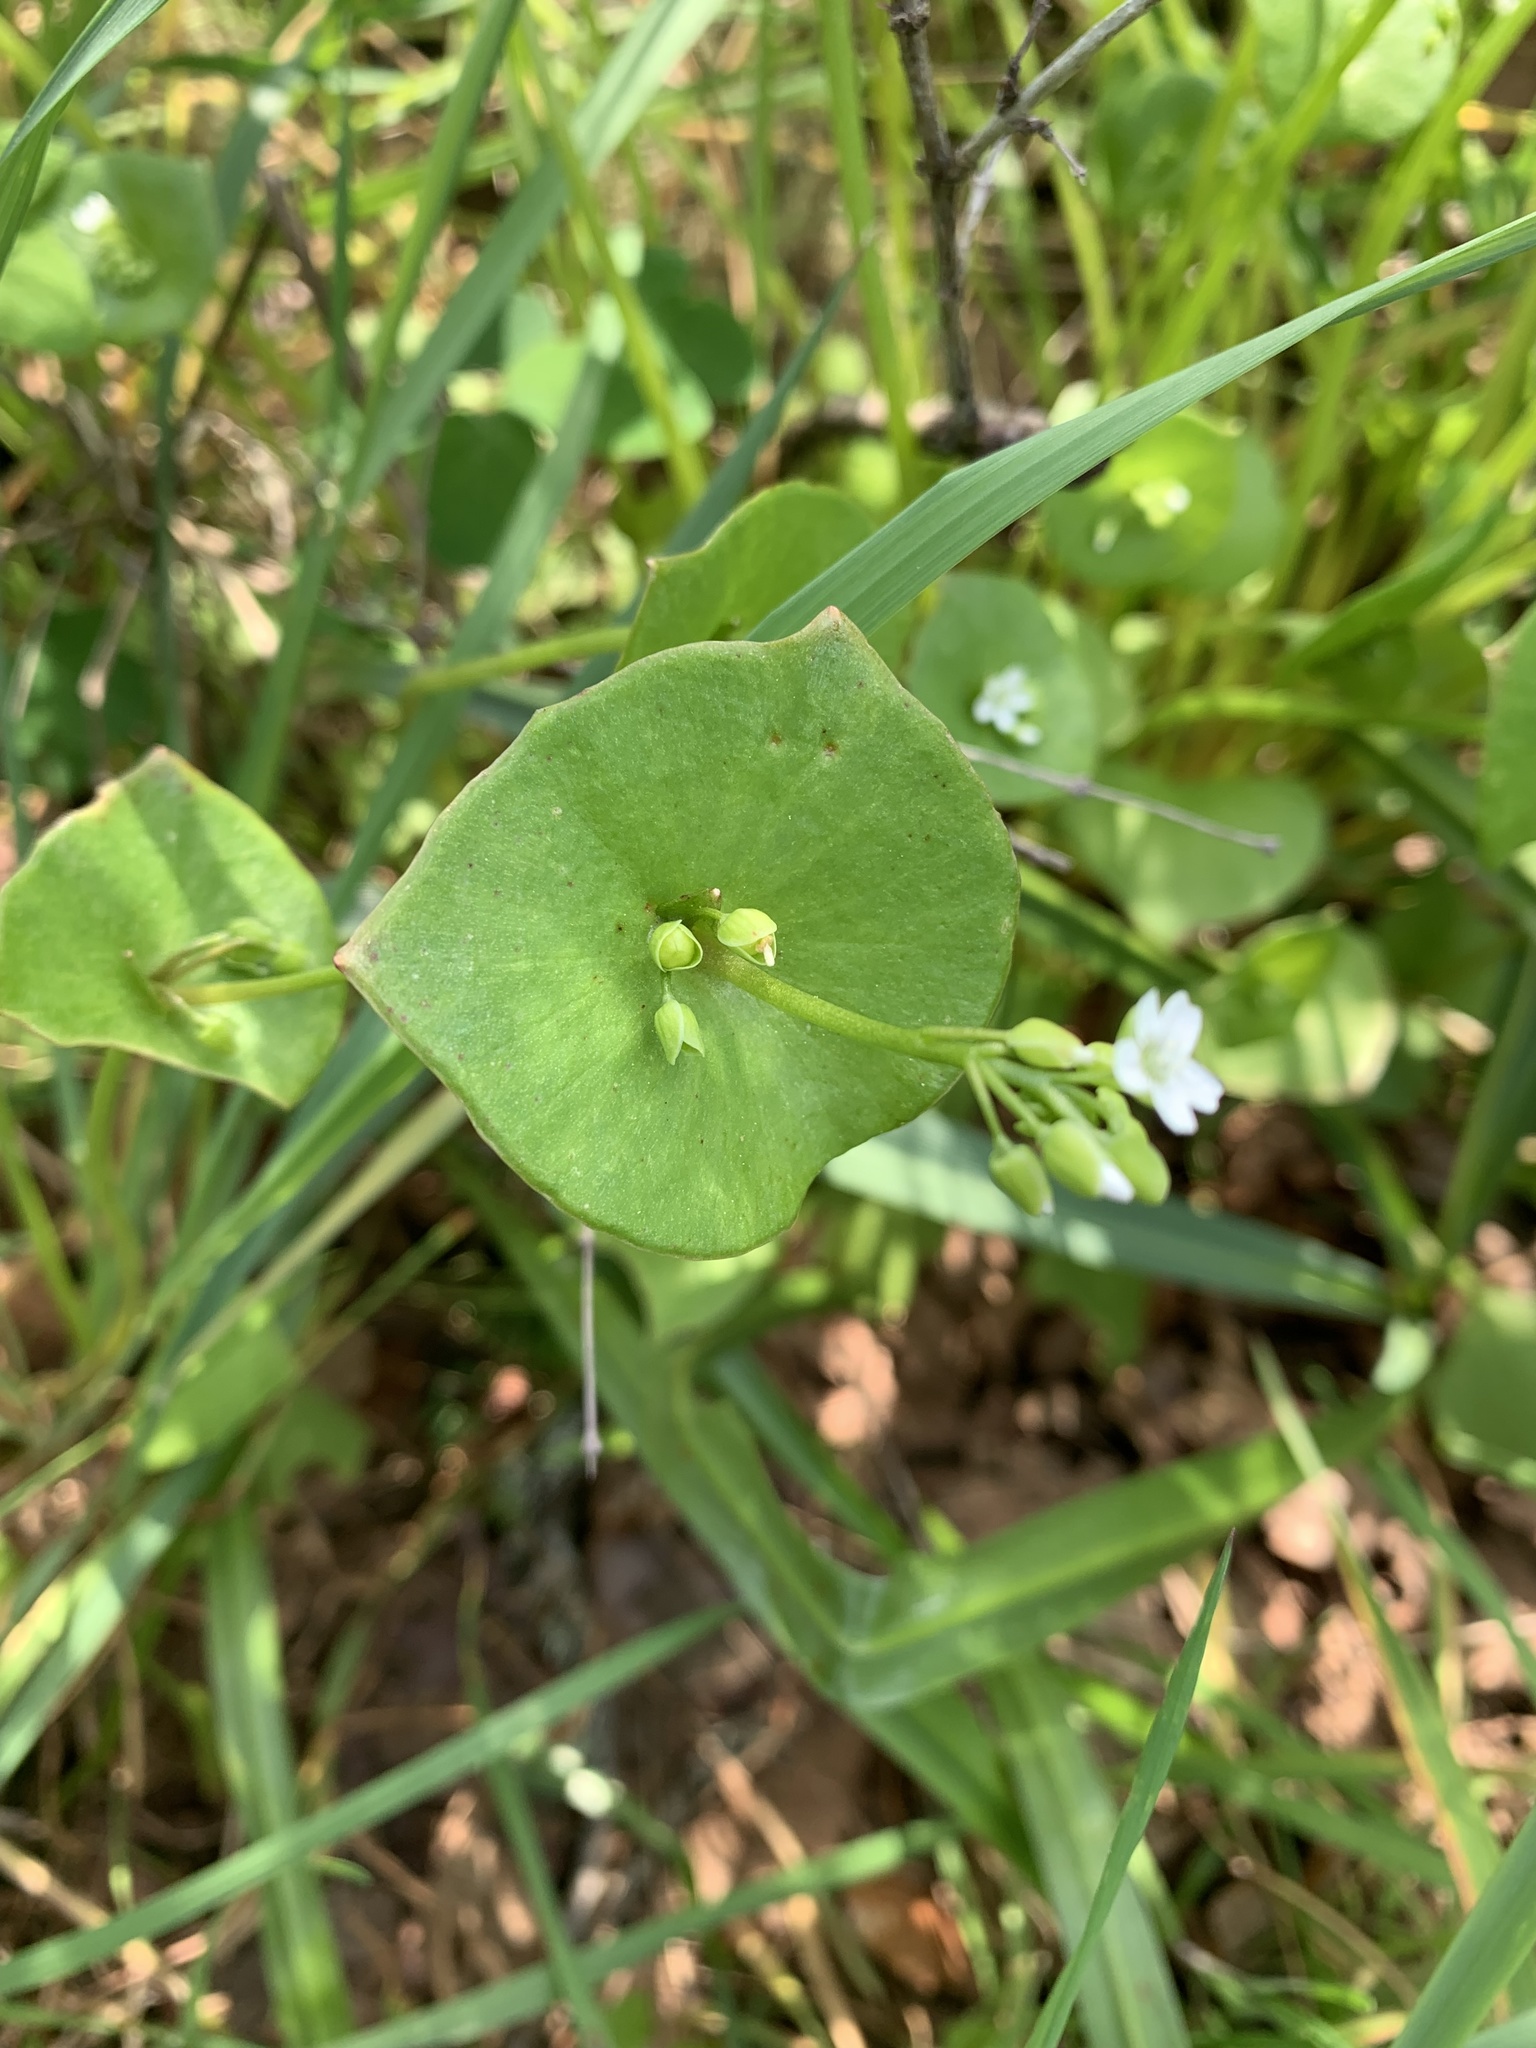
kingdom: Plantae
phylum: Tracheophyta
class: Magnoliopsida
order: Caryophyllales
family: Montiaceae
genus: Claytonia
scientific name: Claytonia perfoliata
